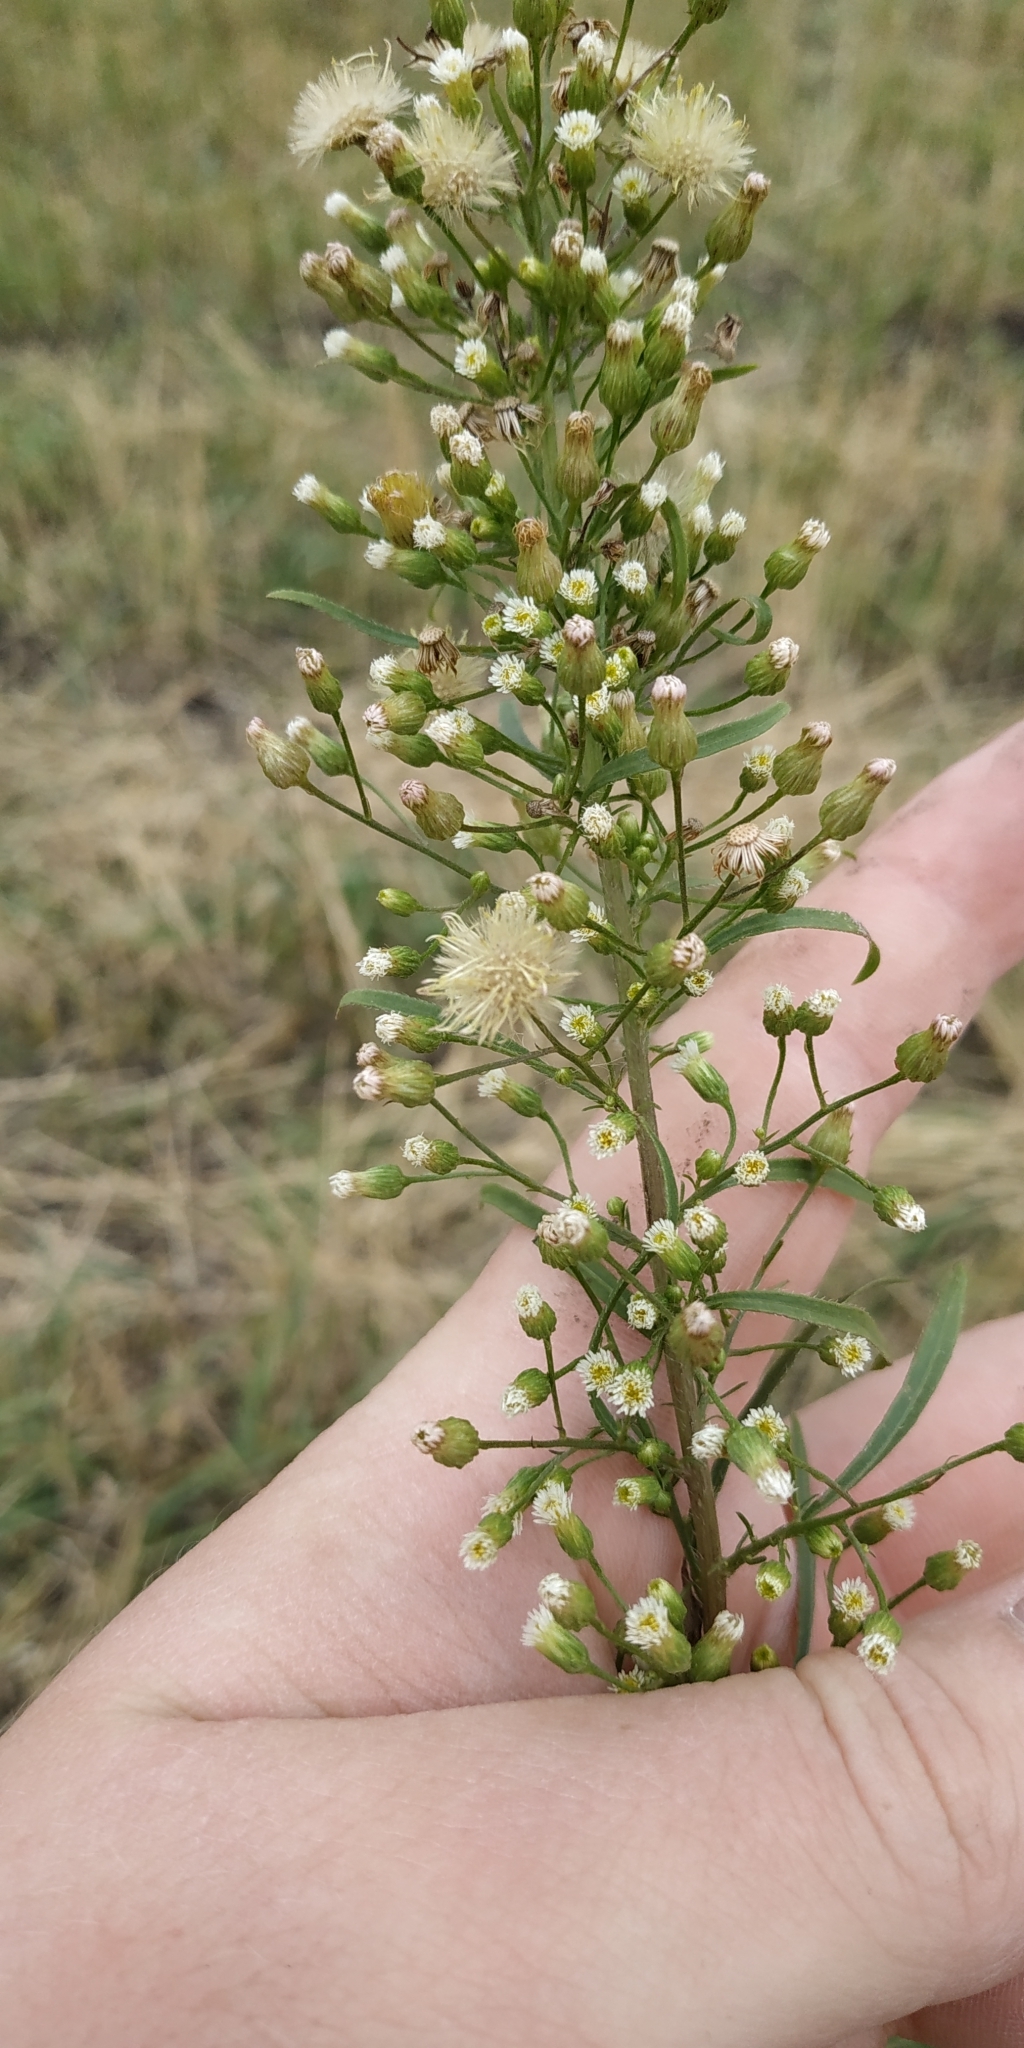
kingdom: Plantae
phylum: Tracheophyta
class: Magnoliopsida
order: Asterales
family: Asteraceae
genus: Erigeron
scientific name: Erigeron canadensis
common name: Canadian fleabane
